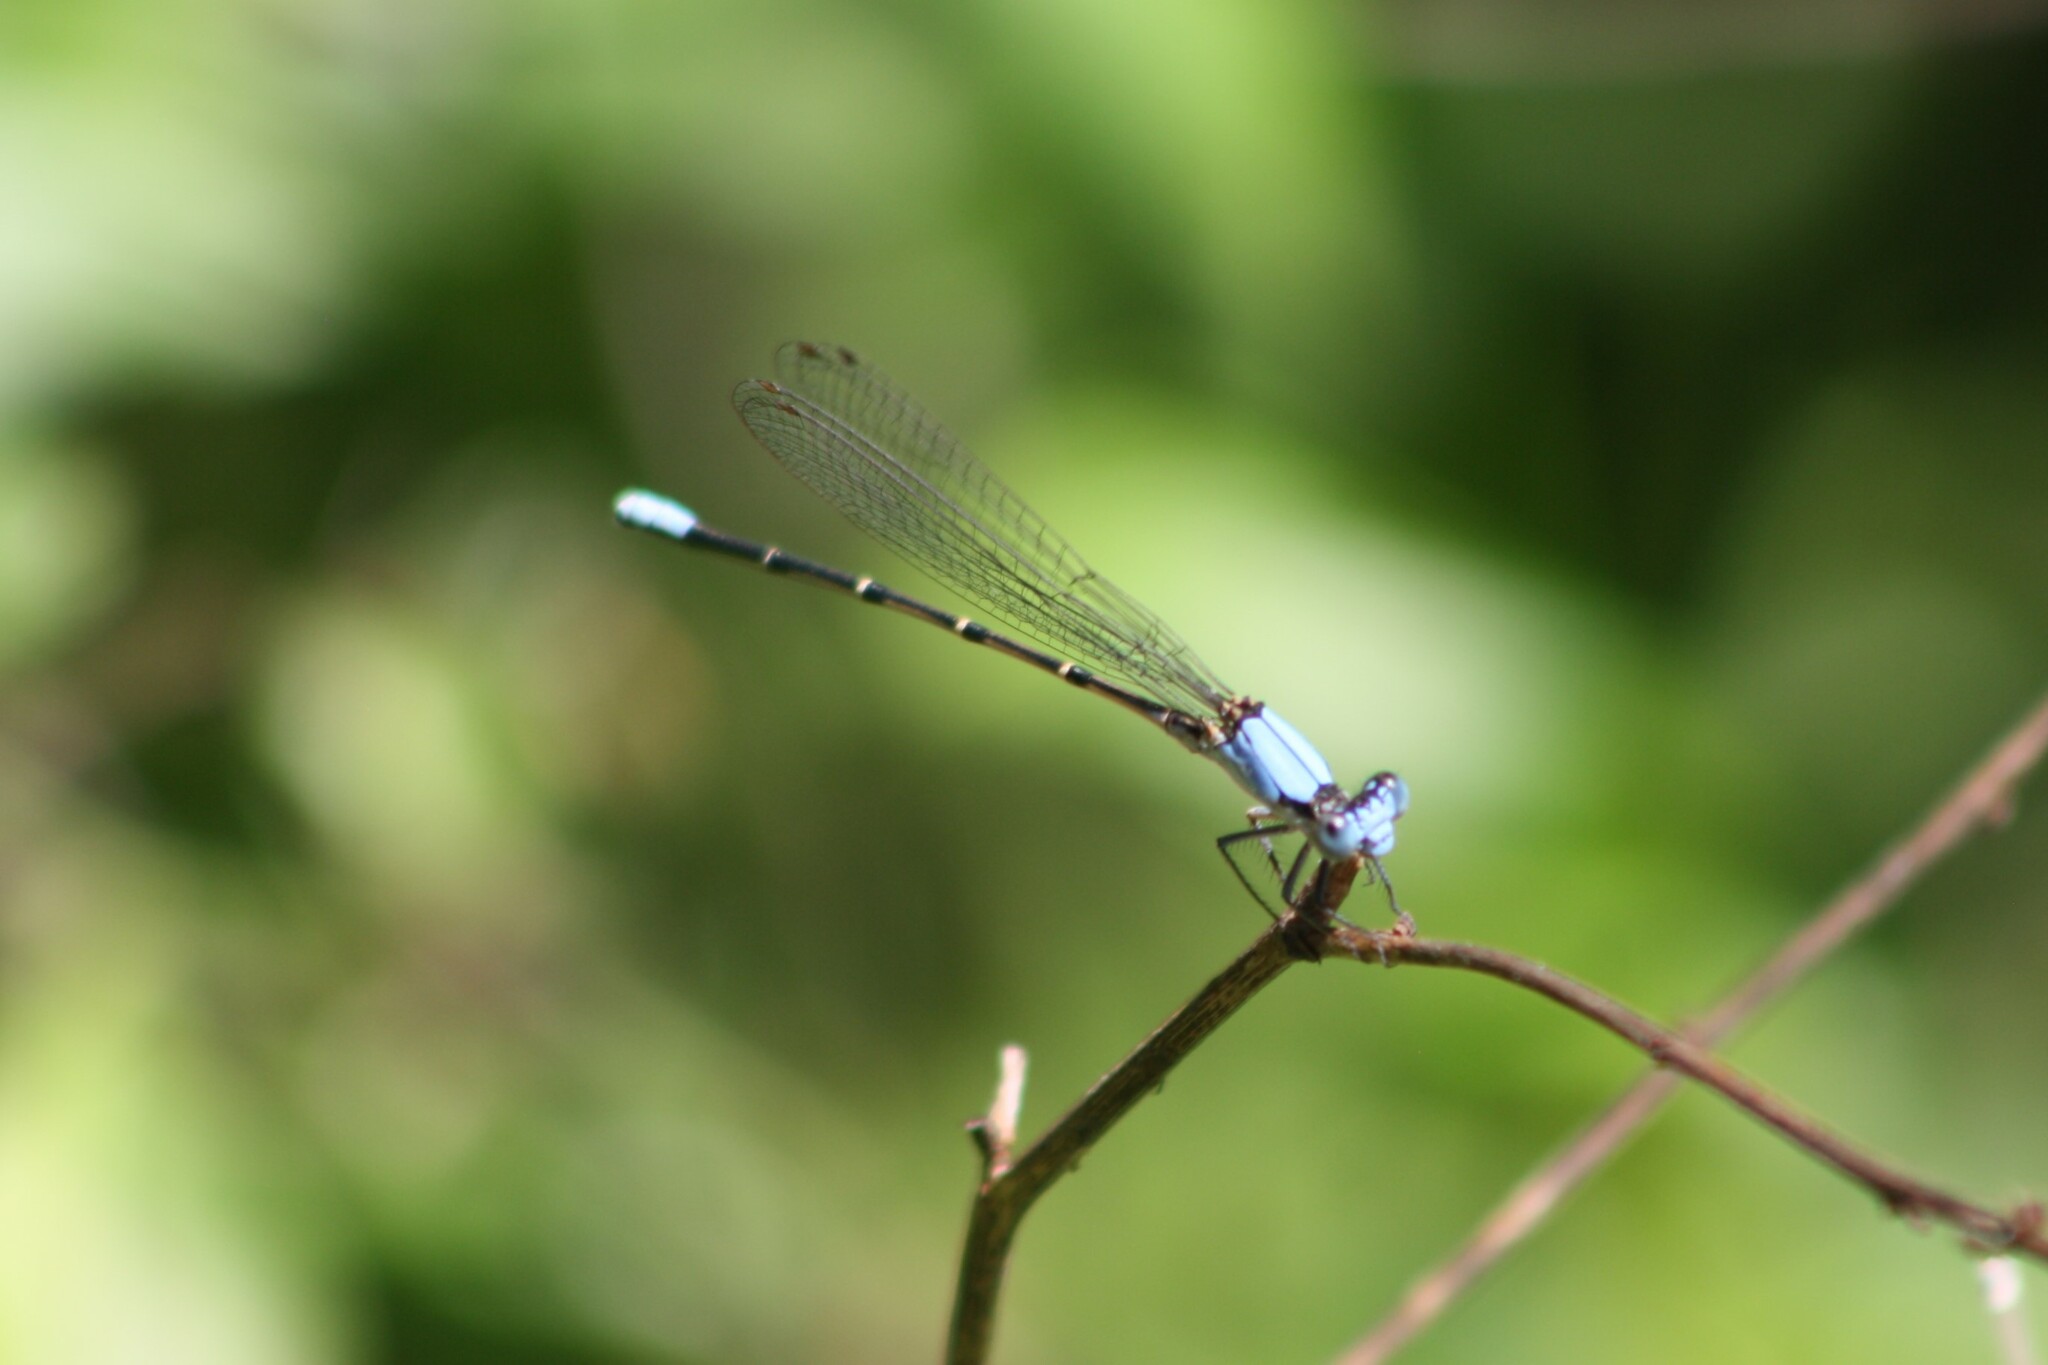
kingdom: Animalia
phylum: Arthropoda
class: Insecta
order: Odonata
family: Coenagrionidae
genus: Argia
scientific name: Argia apicalis
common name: Blue-fronted dancer
